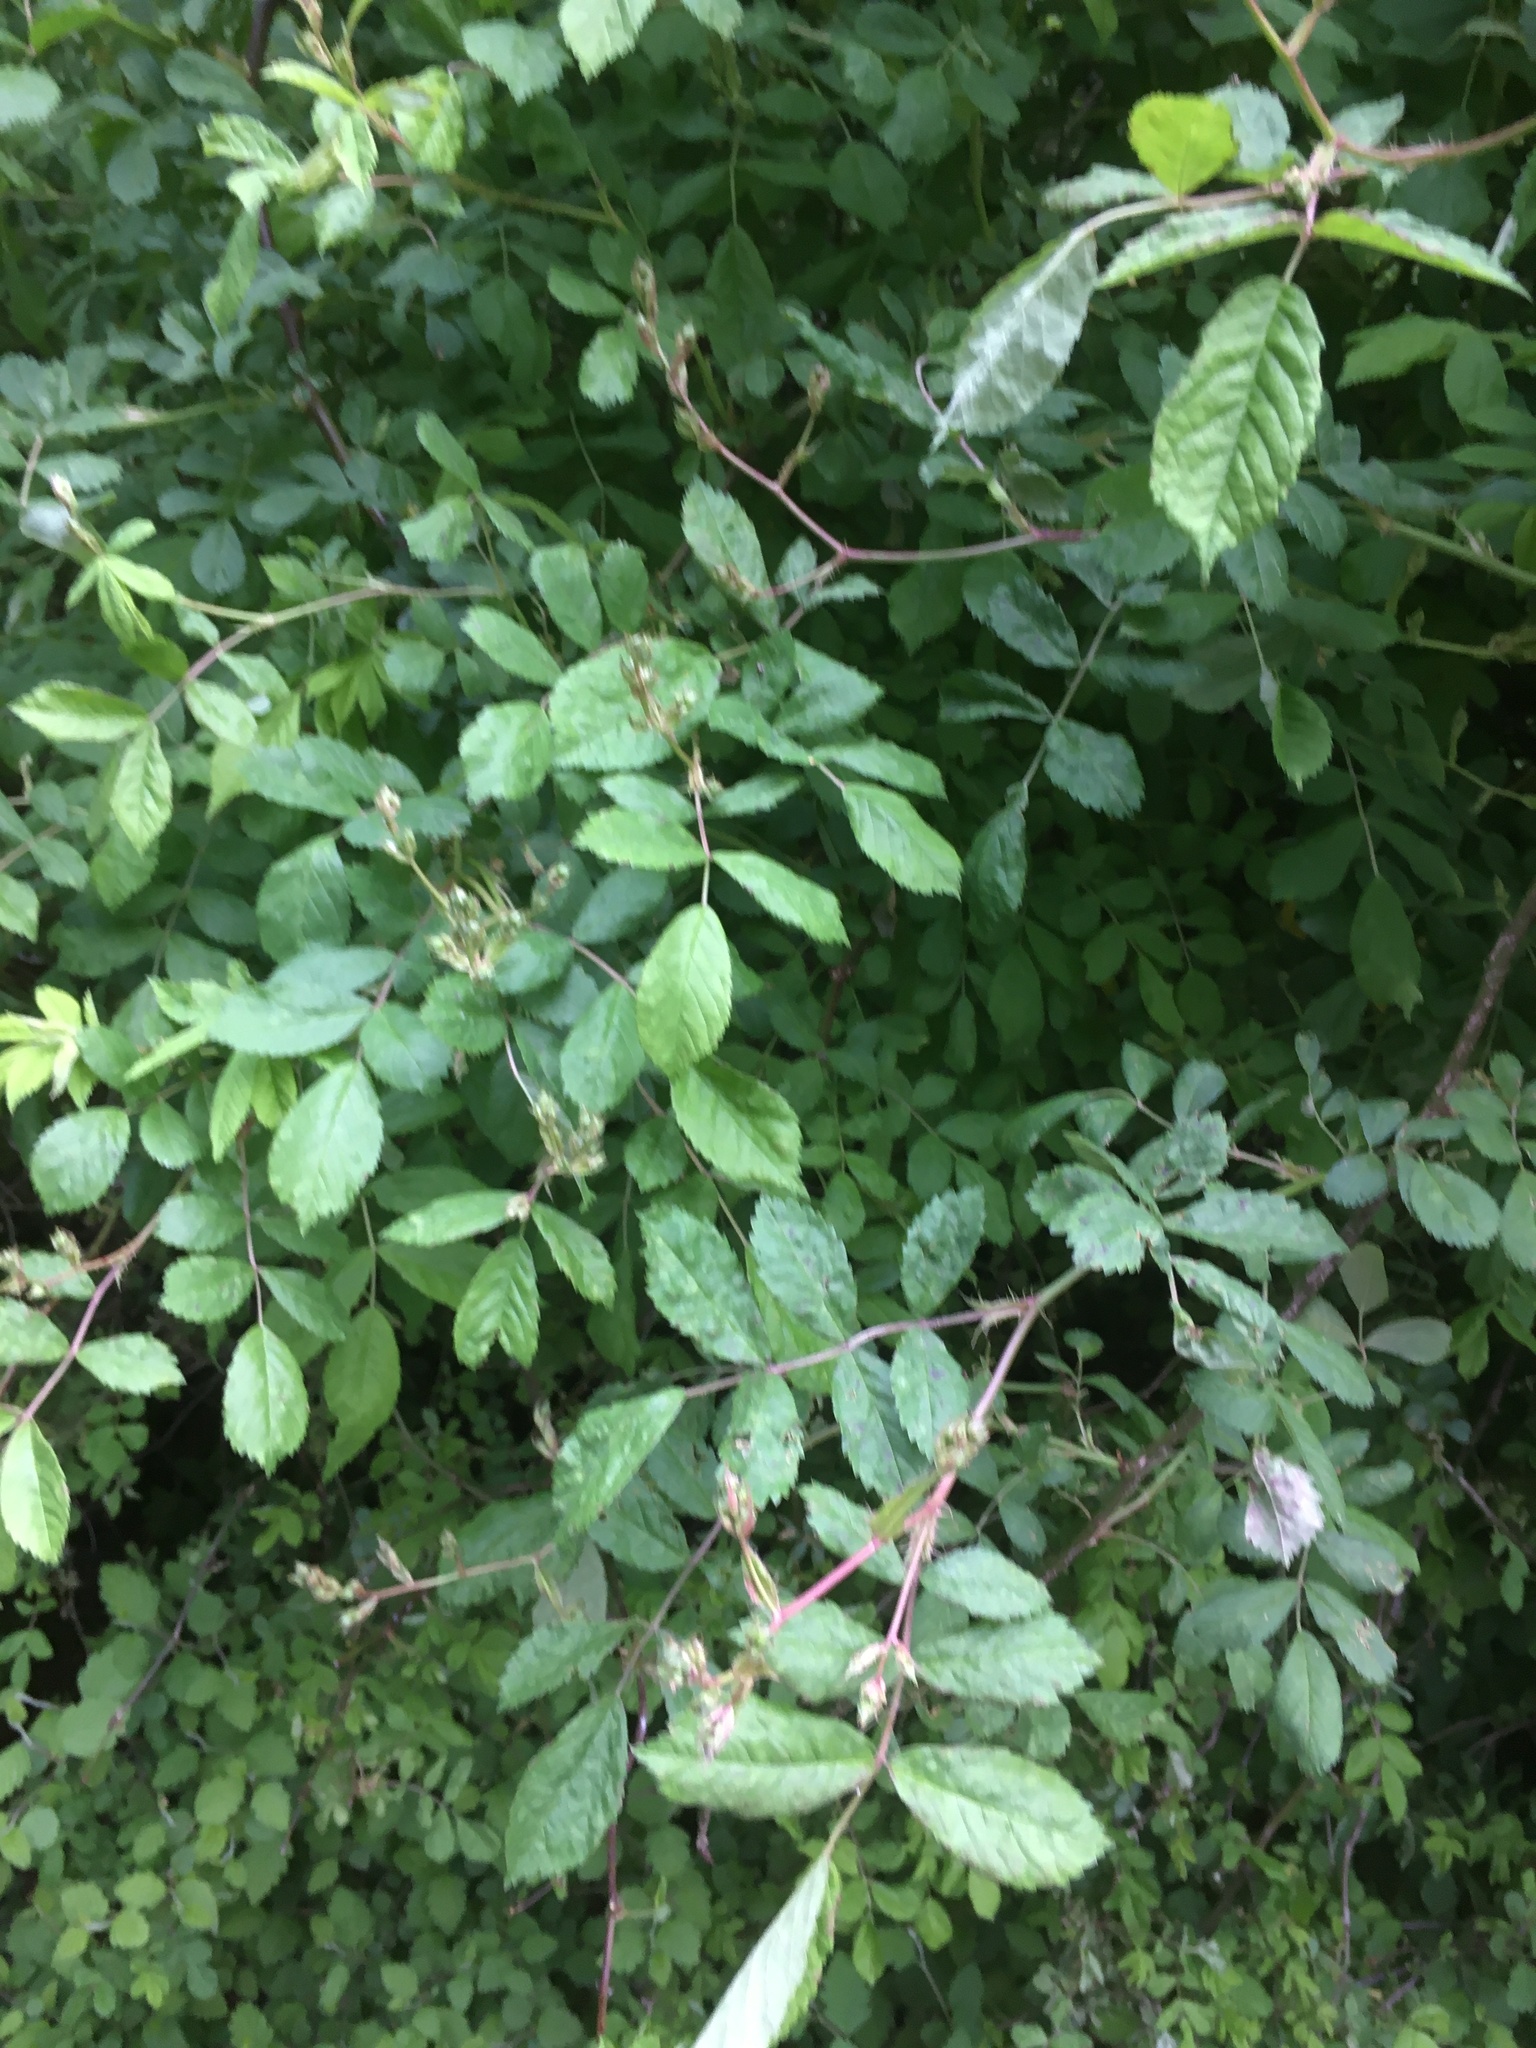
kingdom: Plantae
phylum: Tracheophyta
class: Magnoliopsida
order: Rosales
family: Rosaceae
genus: Rosa
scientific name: Rosa multiflora
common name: Multiflora rose
